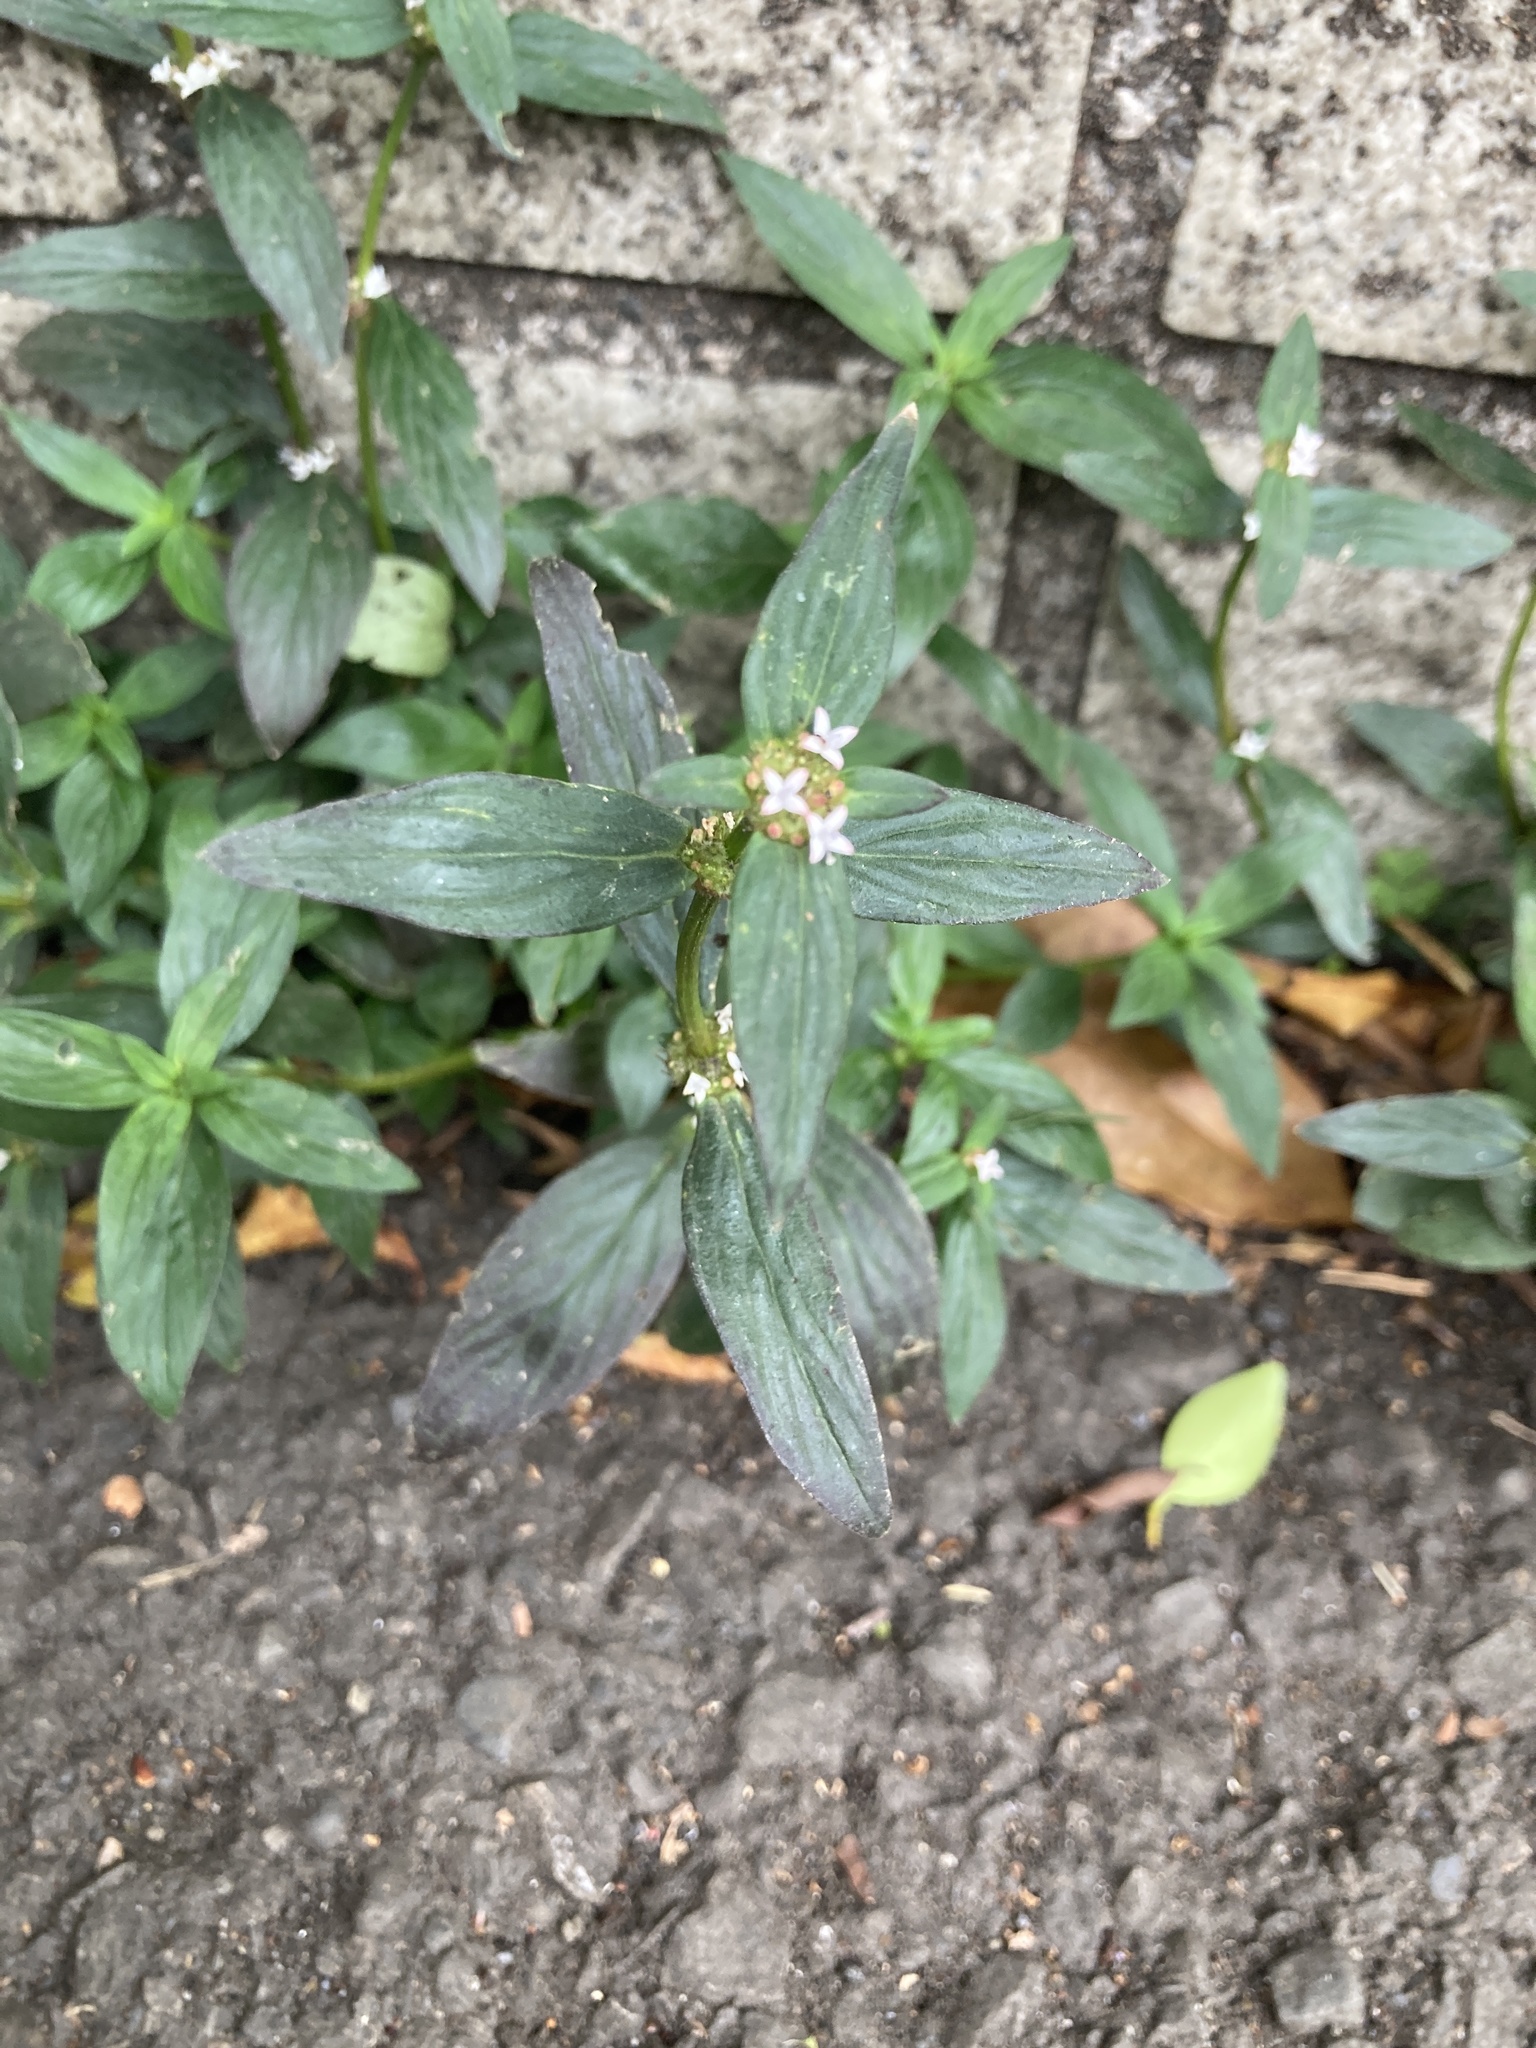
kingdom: Plantae
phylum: Tracheophyta
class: Magnoliopsida
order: Gentianales
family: Rubiaceae
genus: Spermacoce
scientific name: Spermacoce remota
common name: Woodland false buttonweed
